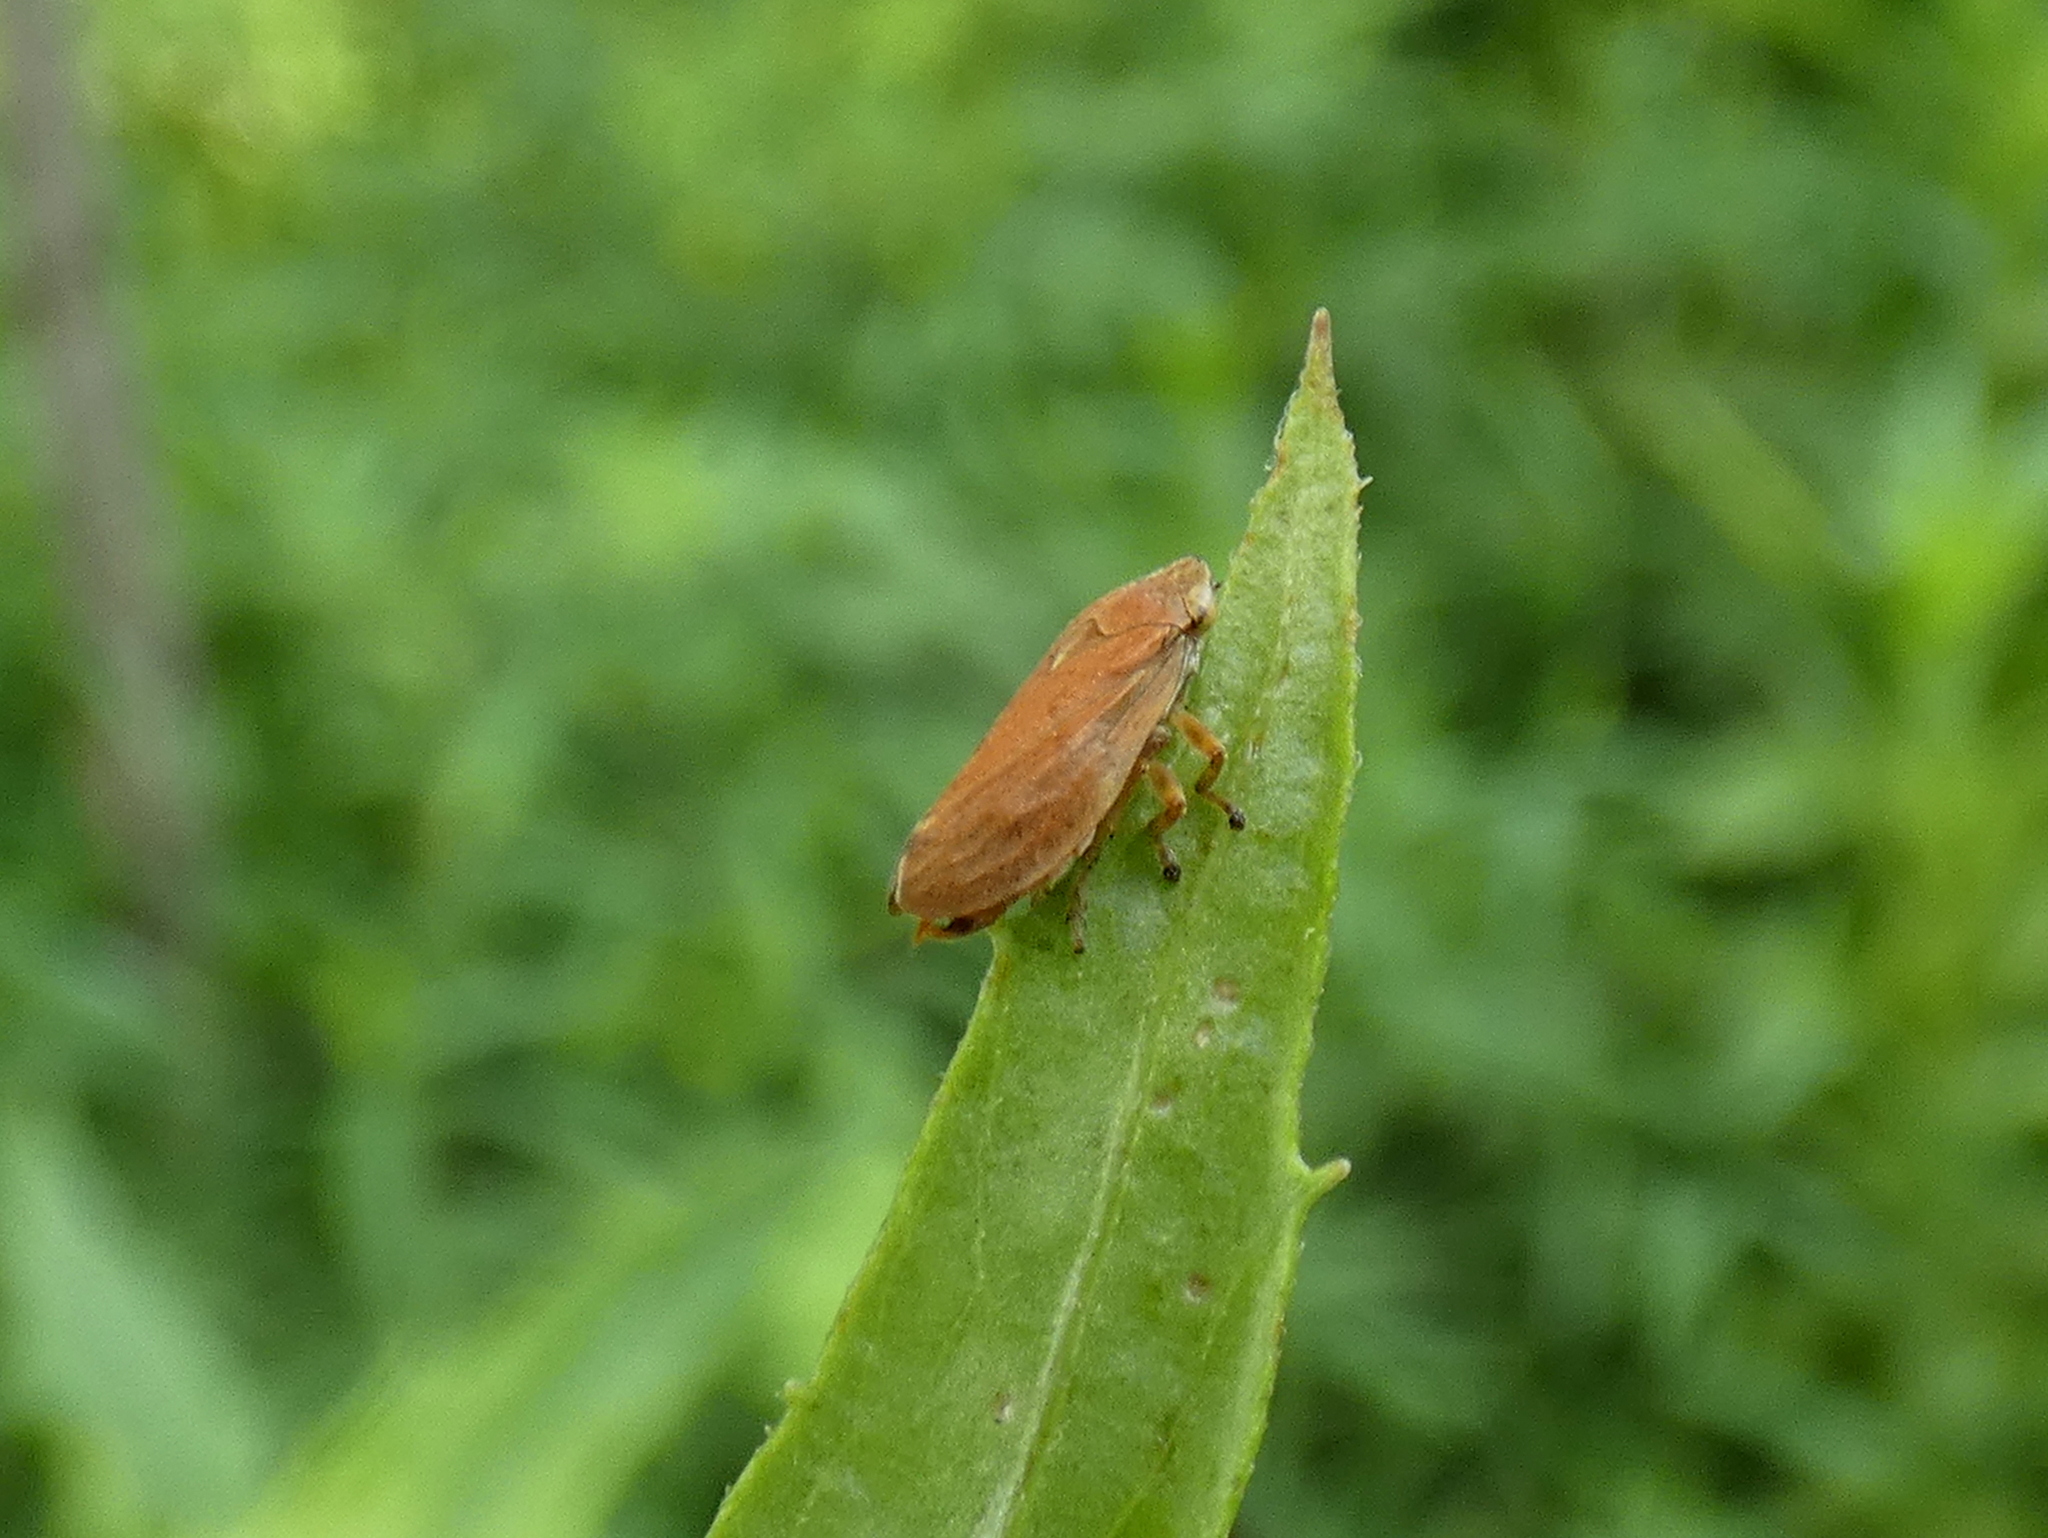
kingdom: Animalia
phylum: Arthropoda
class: Insecta
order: Hemiptera
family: Aphrophoridae
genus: Philaenus
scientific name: Philaenus spumarius
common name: Meadow spittlebug
